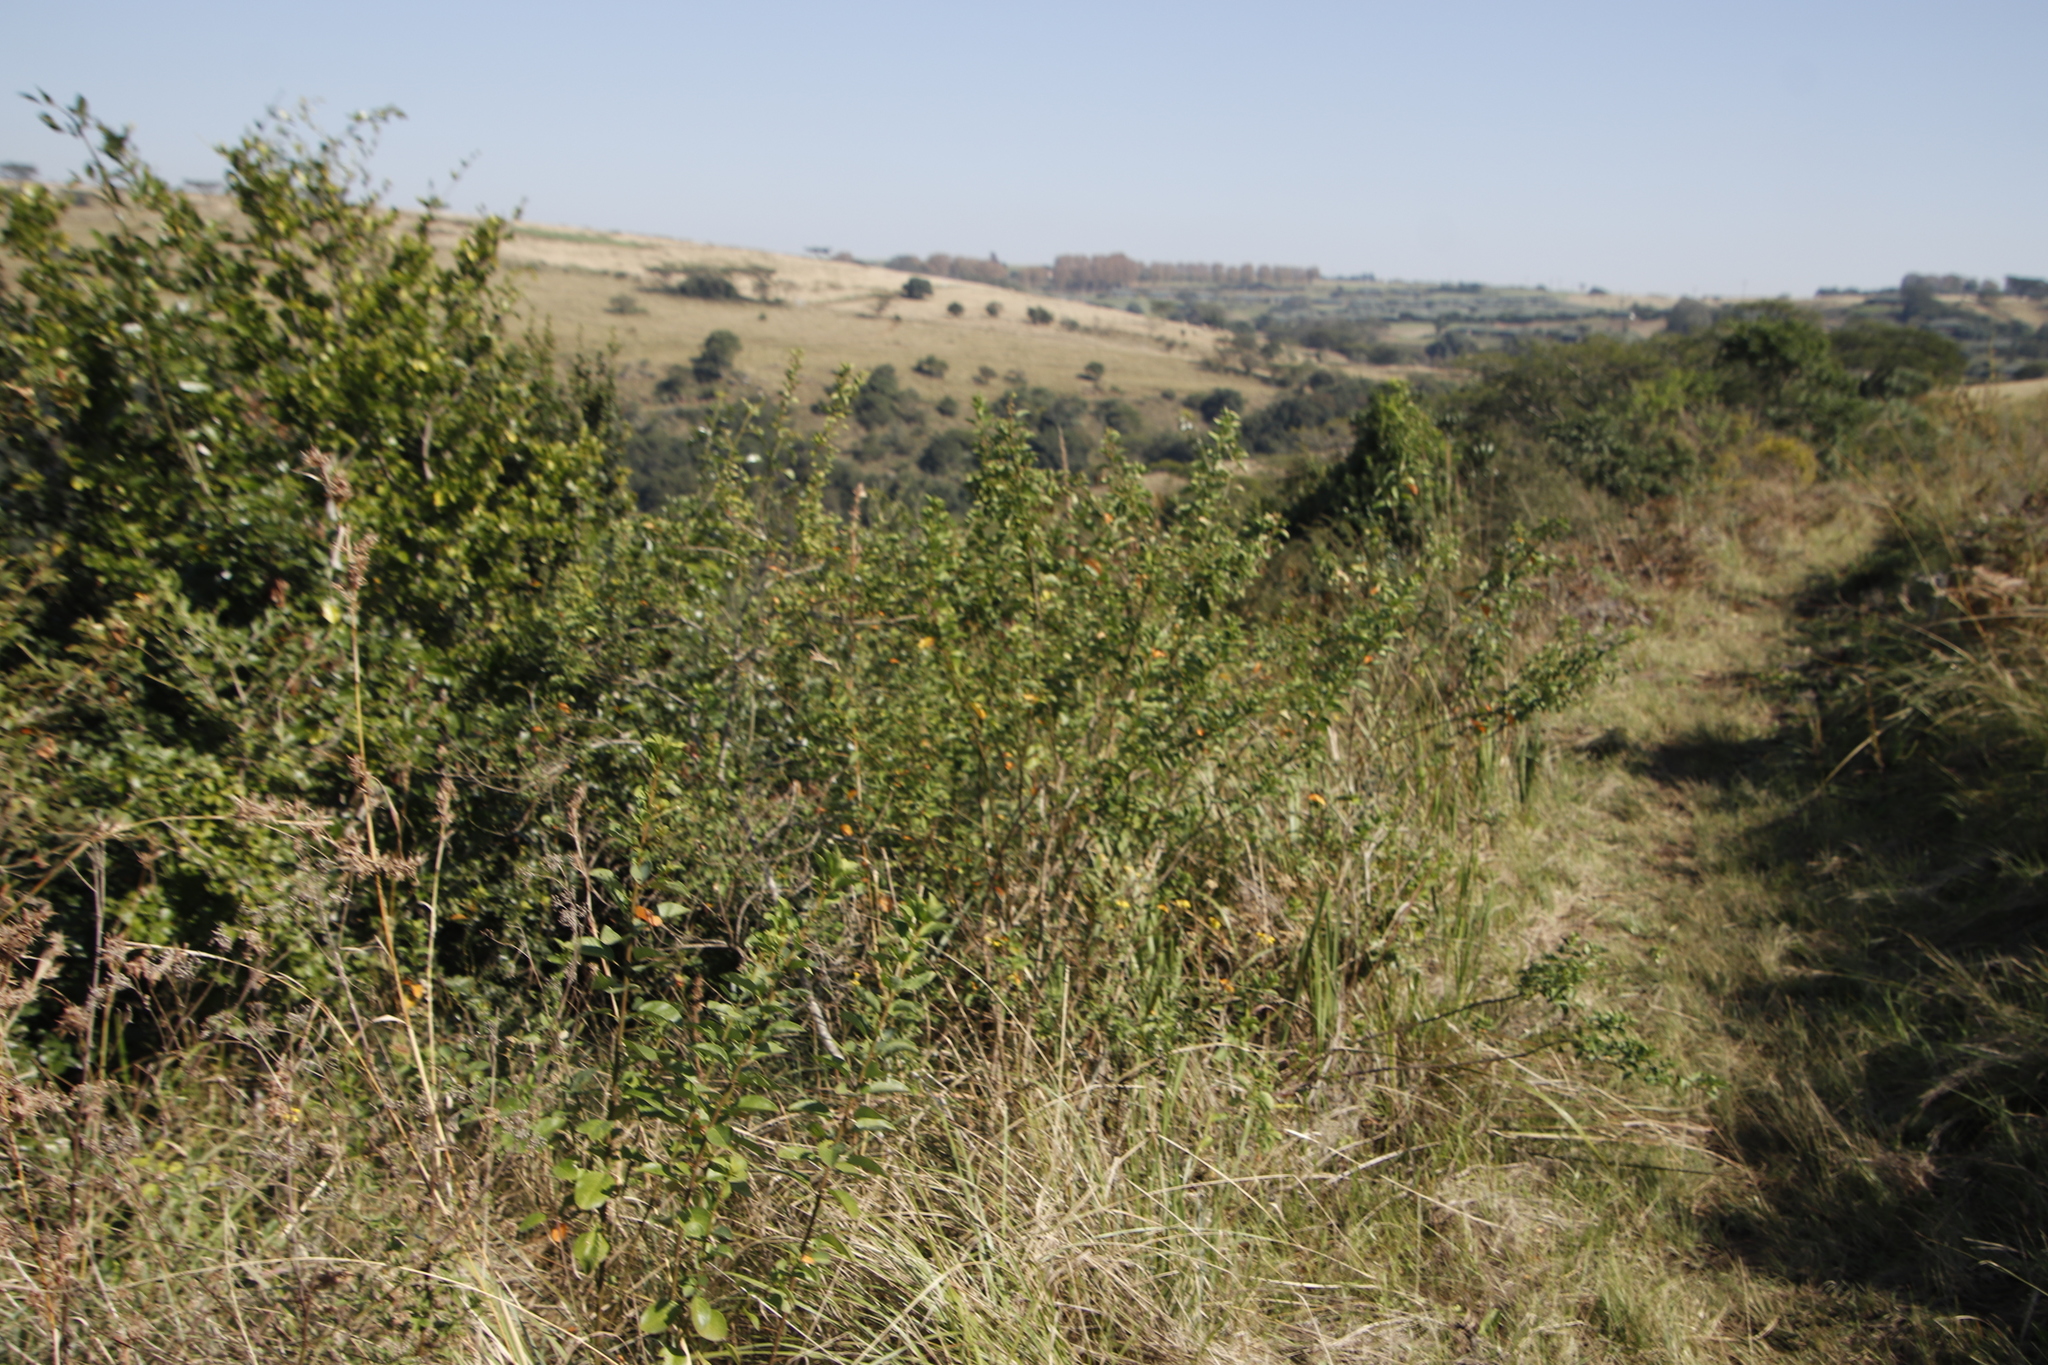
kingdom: Plantae
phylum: Tracheophyta
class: Magnoliopsida
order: Malpighiales
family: Peraceae
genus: Clutia
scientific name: Clutia pulchella
